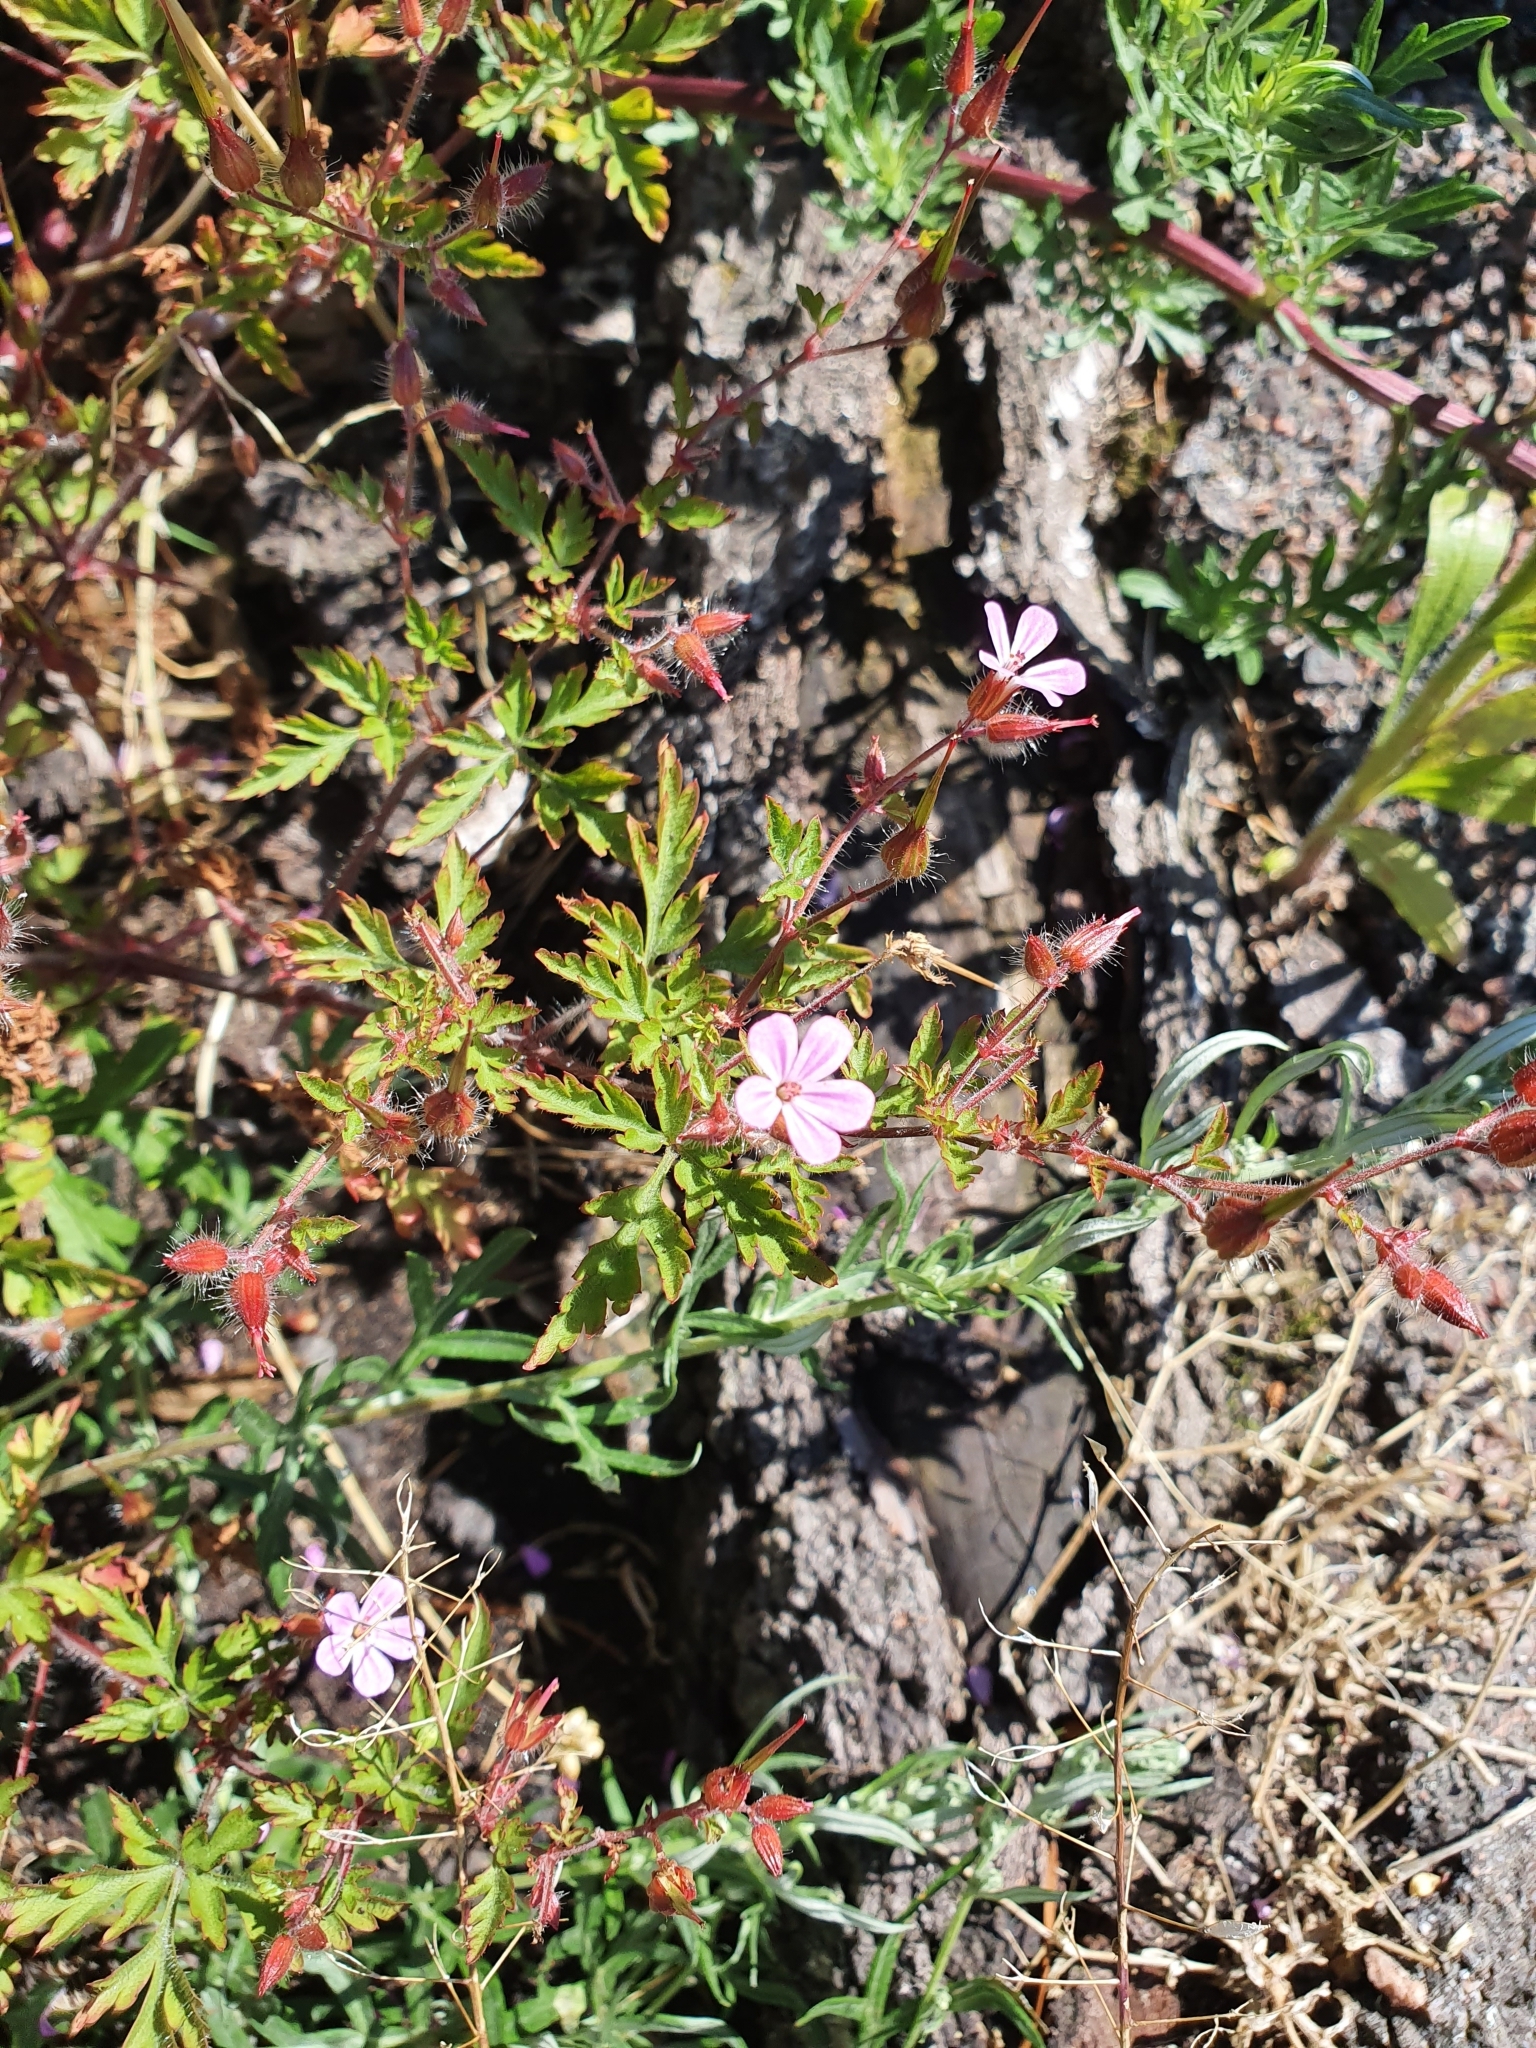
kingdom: Plantae
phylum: Tracheophyta
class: Magnoliopsida
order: Geraniales
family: Geraniaceae
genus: Geranium
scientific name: Geranium robertianum
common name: Herb-robert
